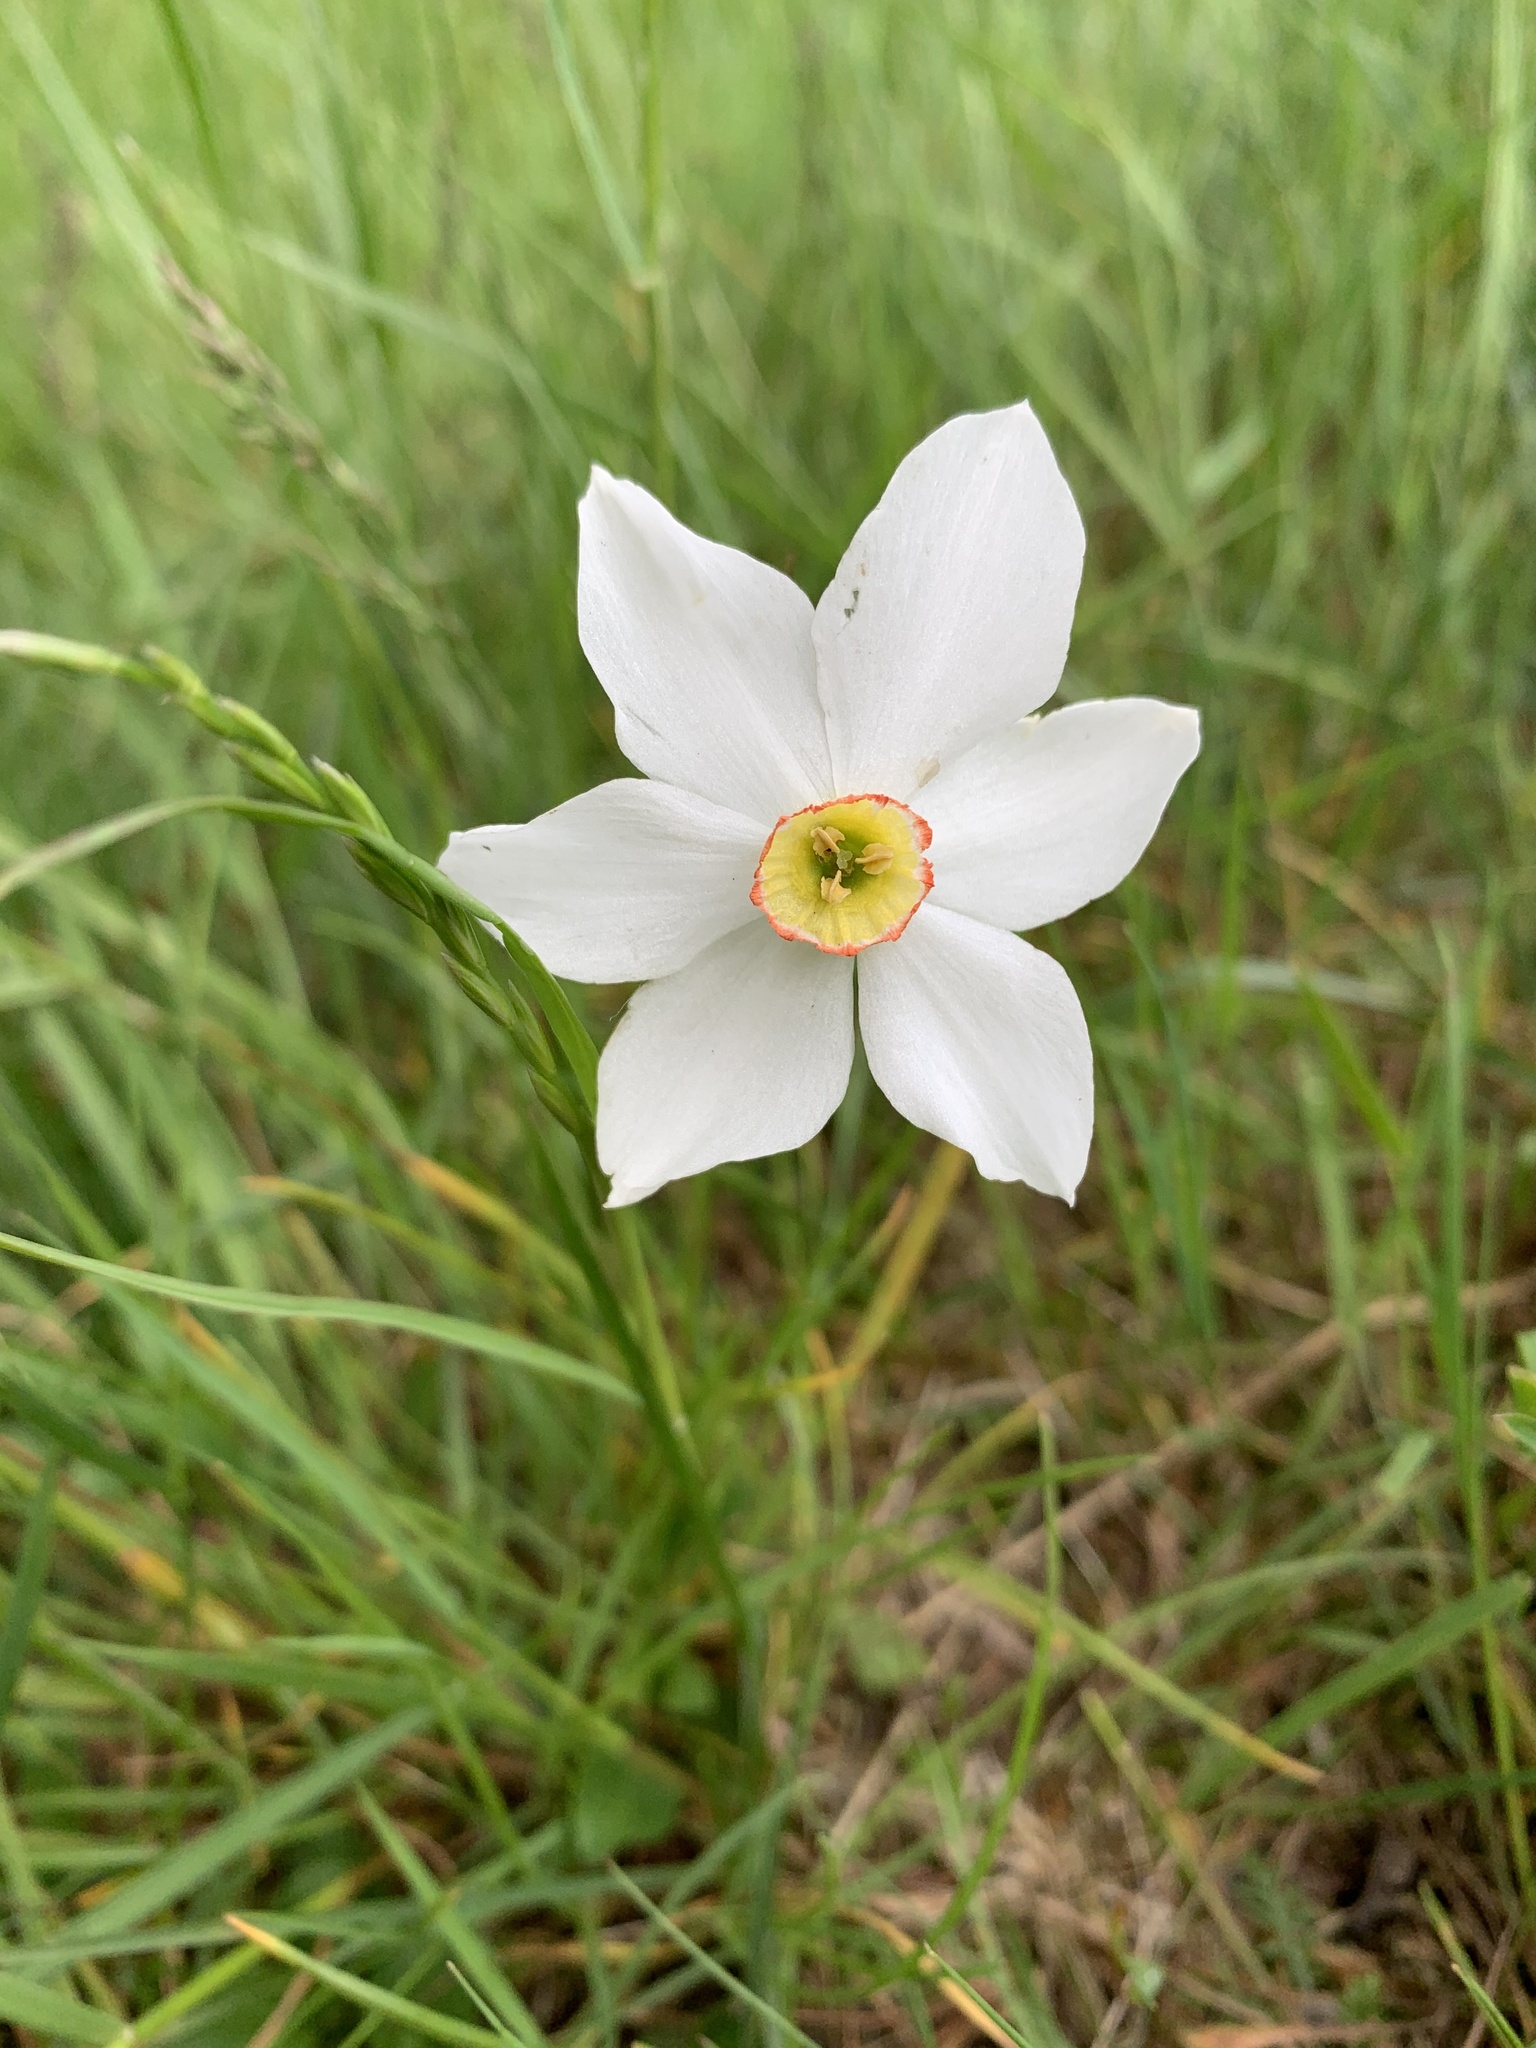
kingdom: Plantae
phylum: Tracheophyta
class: Liliopsida
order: Asparagales
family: Amaryllidaceae
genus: Narcissus
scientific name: Narcissus poeticus
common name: Pheasant's-eye daffodil
